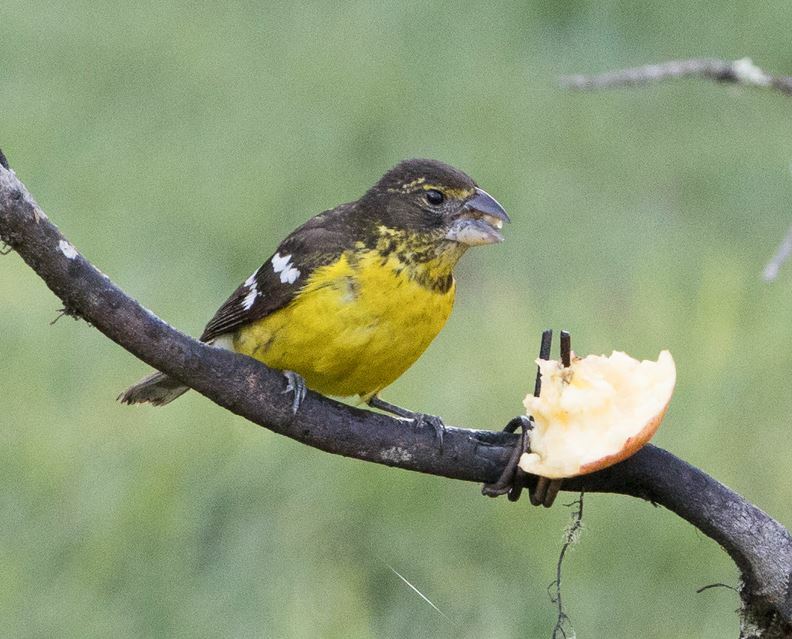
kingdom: Animalia
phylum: Chordata
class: Aves
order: Passeriformes
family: Cardinalidae
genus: Pheucticus
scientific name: Pheucticus aureoventris
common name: Black-backed grosbeak
